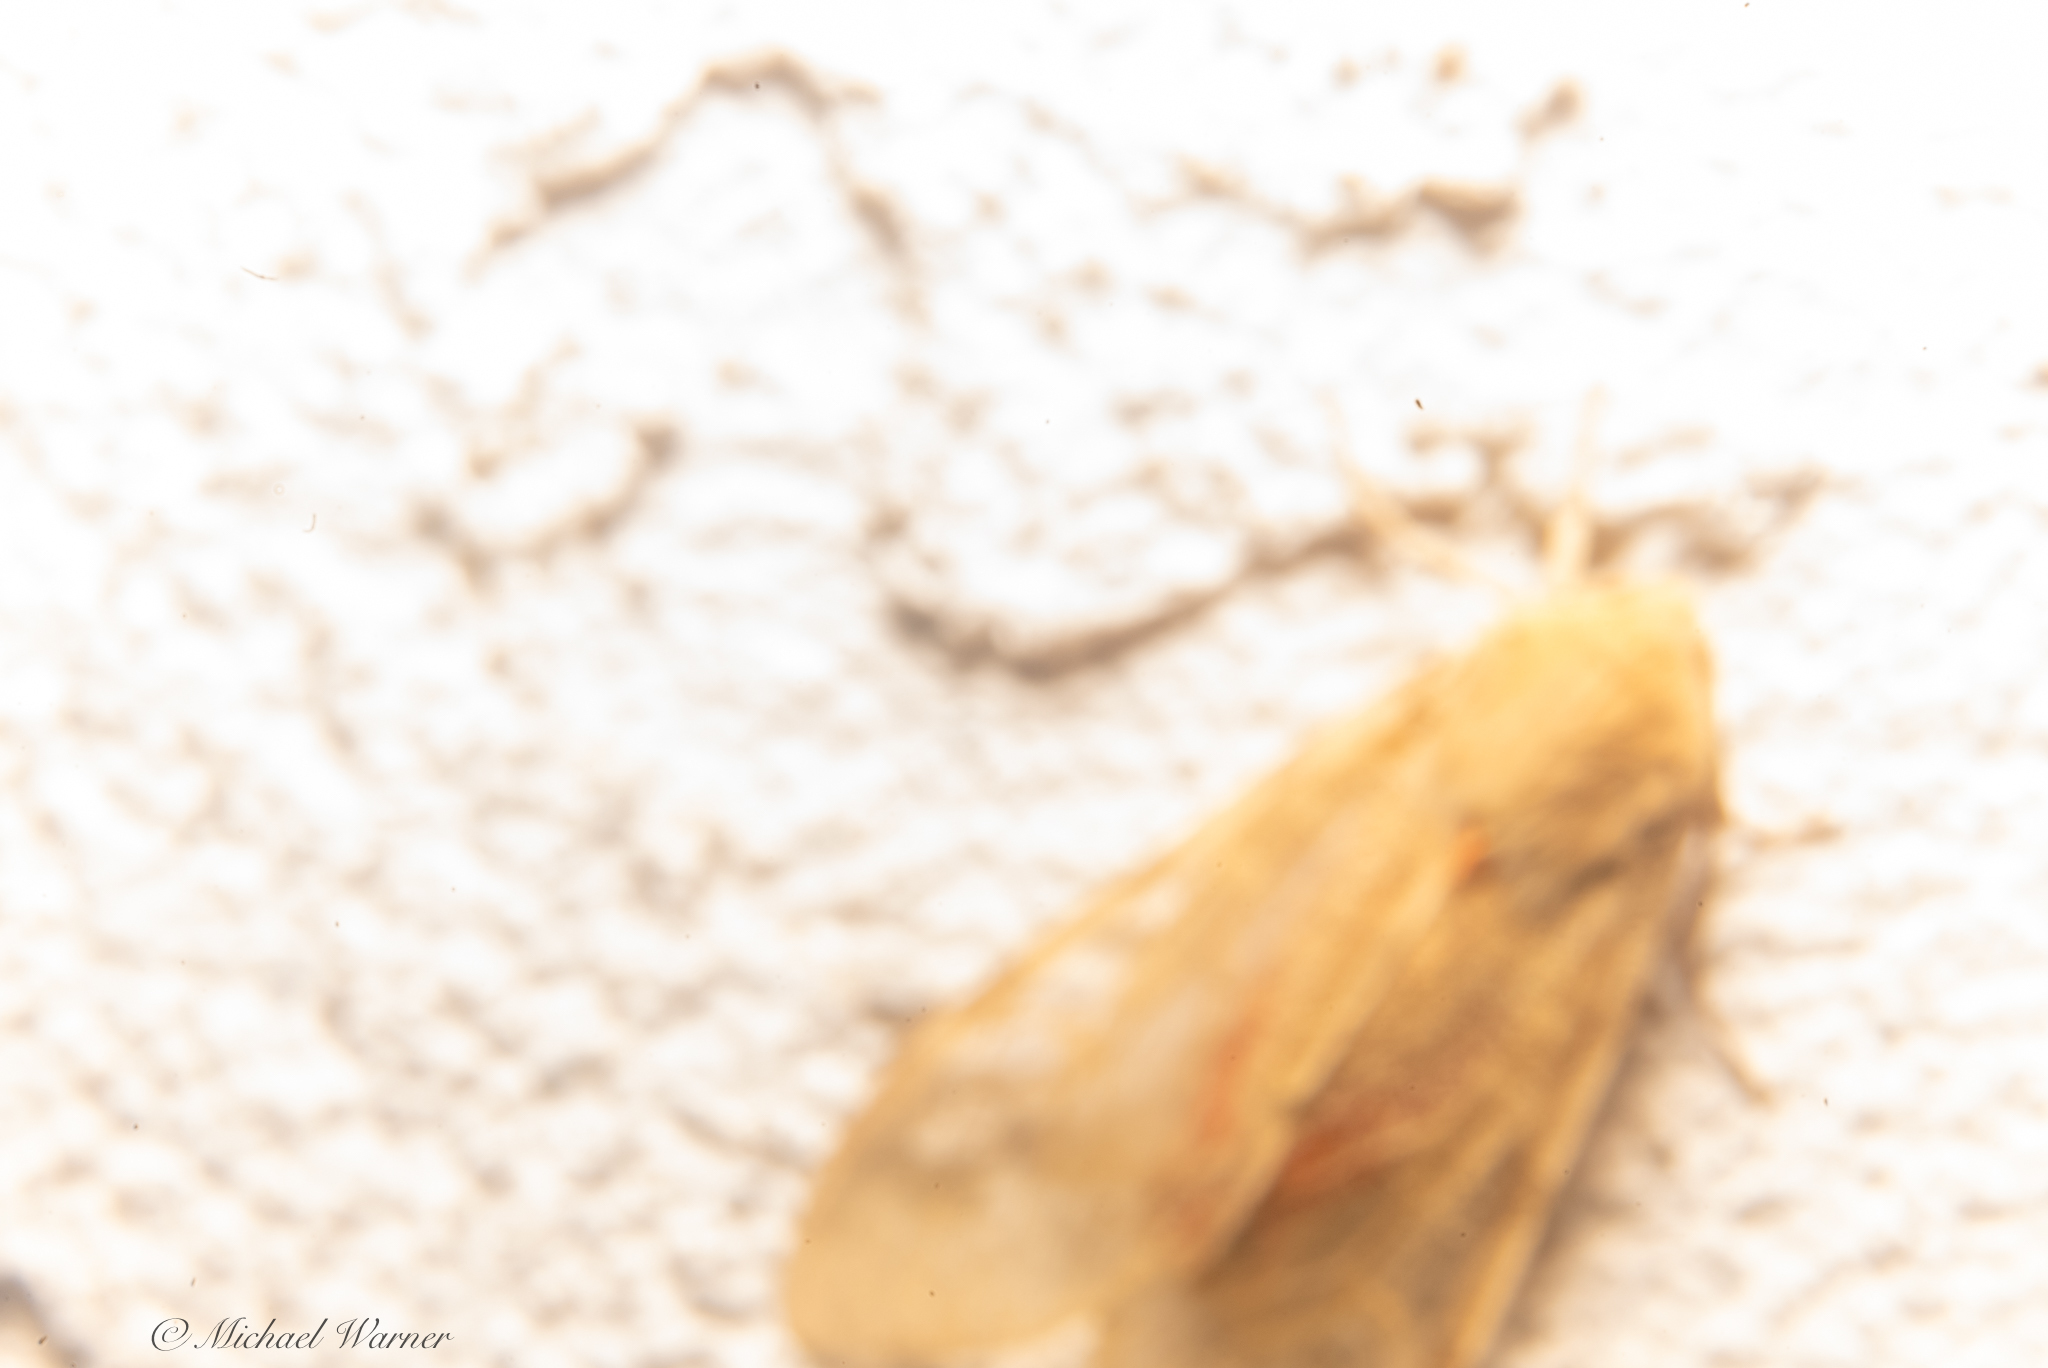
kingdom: Animalia
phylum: Arthropoda
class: Insecta
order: Lepidoptera
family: Erebidae
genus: Hemihyalea
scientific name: Hemihyalea edwardsii
